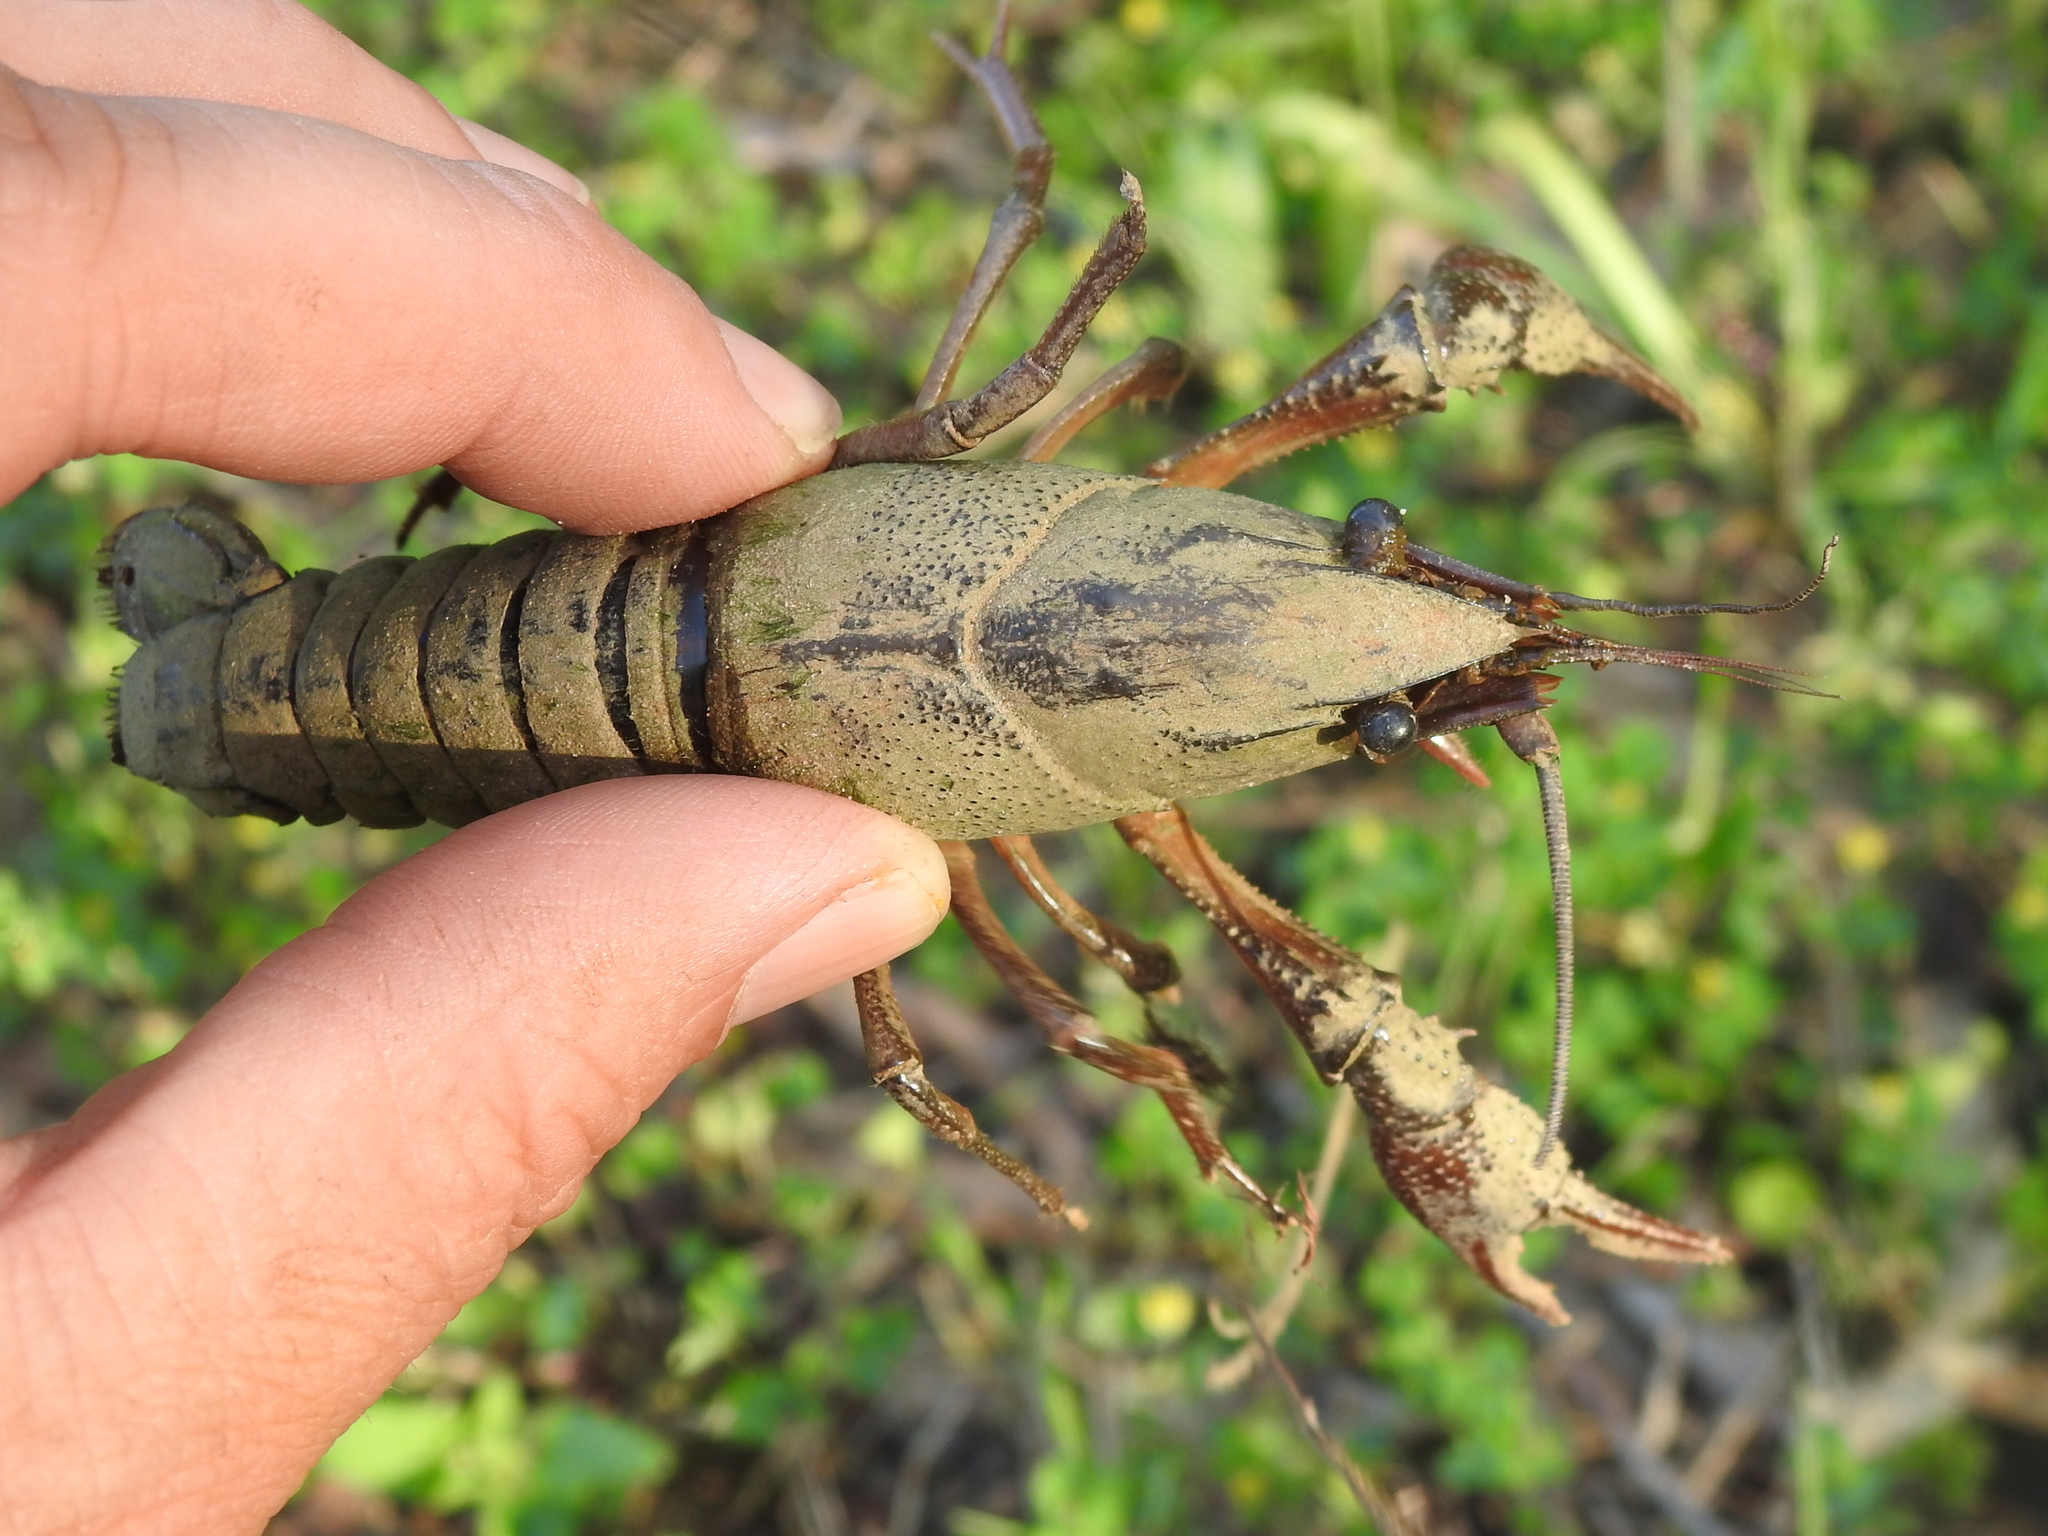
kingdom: Animalia
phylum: Arthropoda
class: Malacostraca
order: Decapoda
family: Cambaridae
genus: Procambarus
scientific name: Procambarus acutus
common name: White river crayfish
